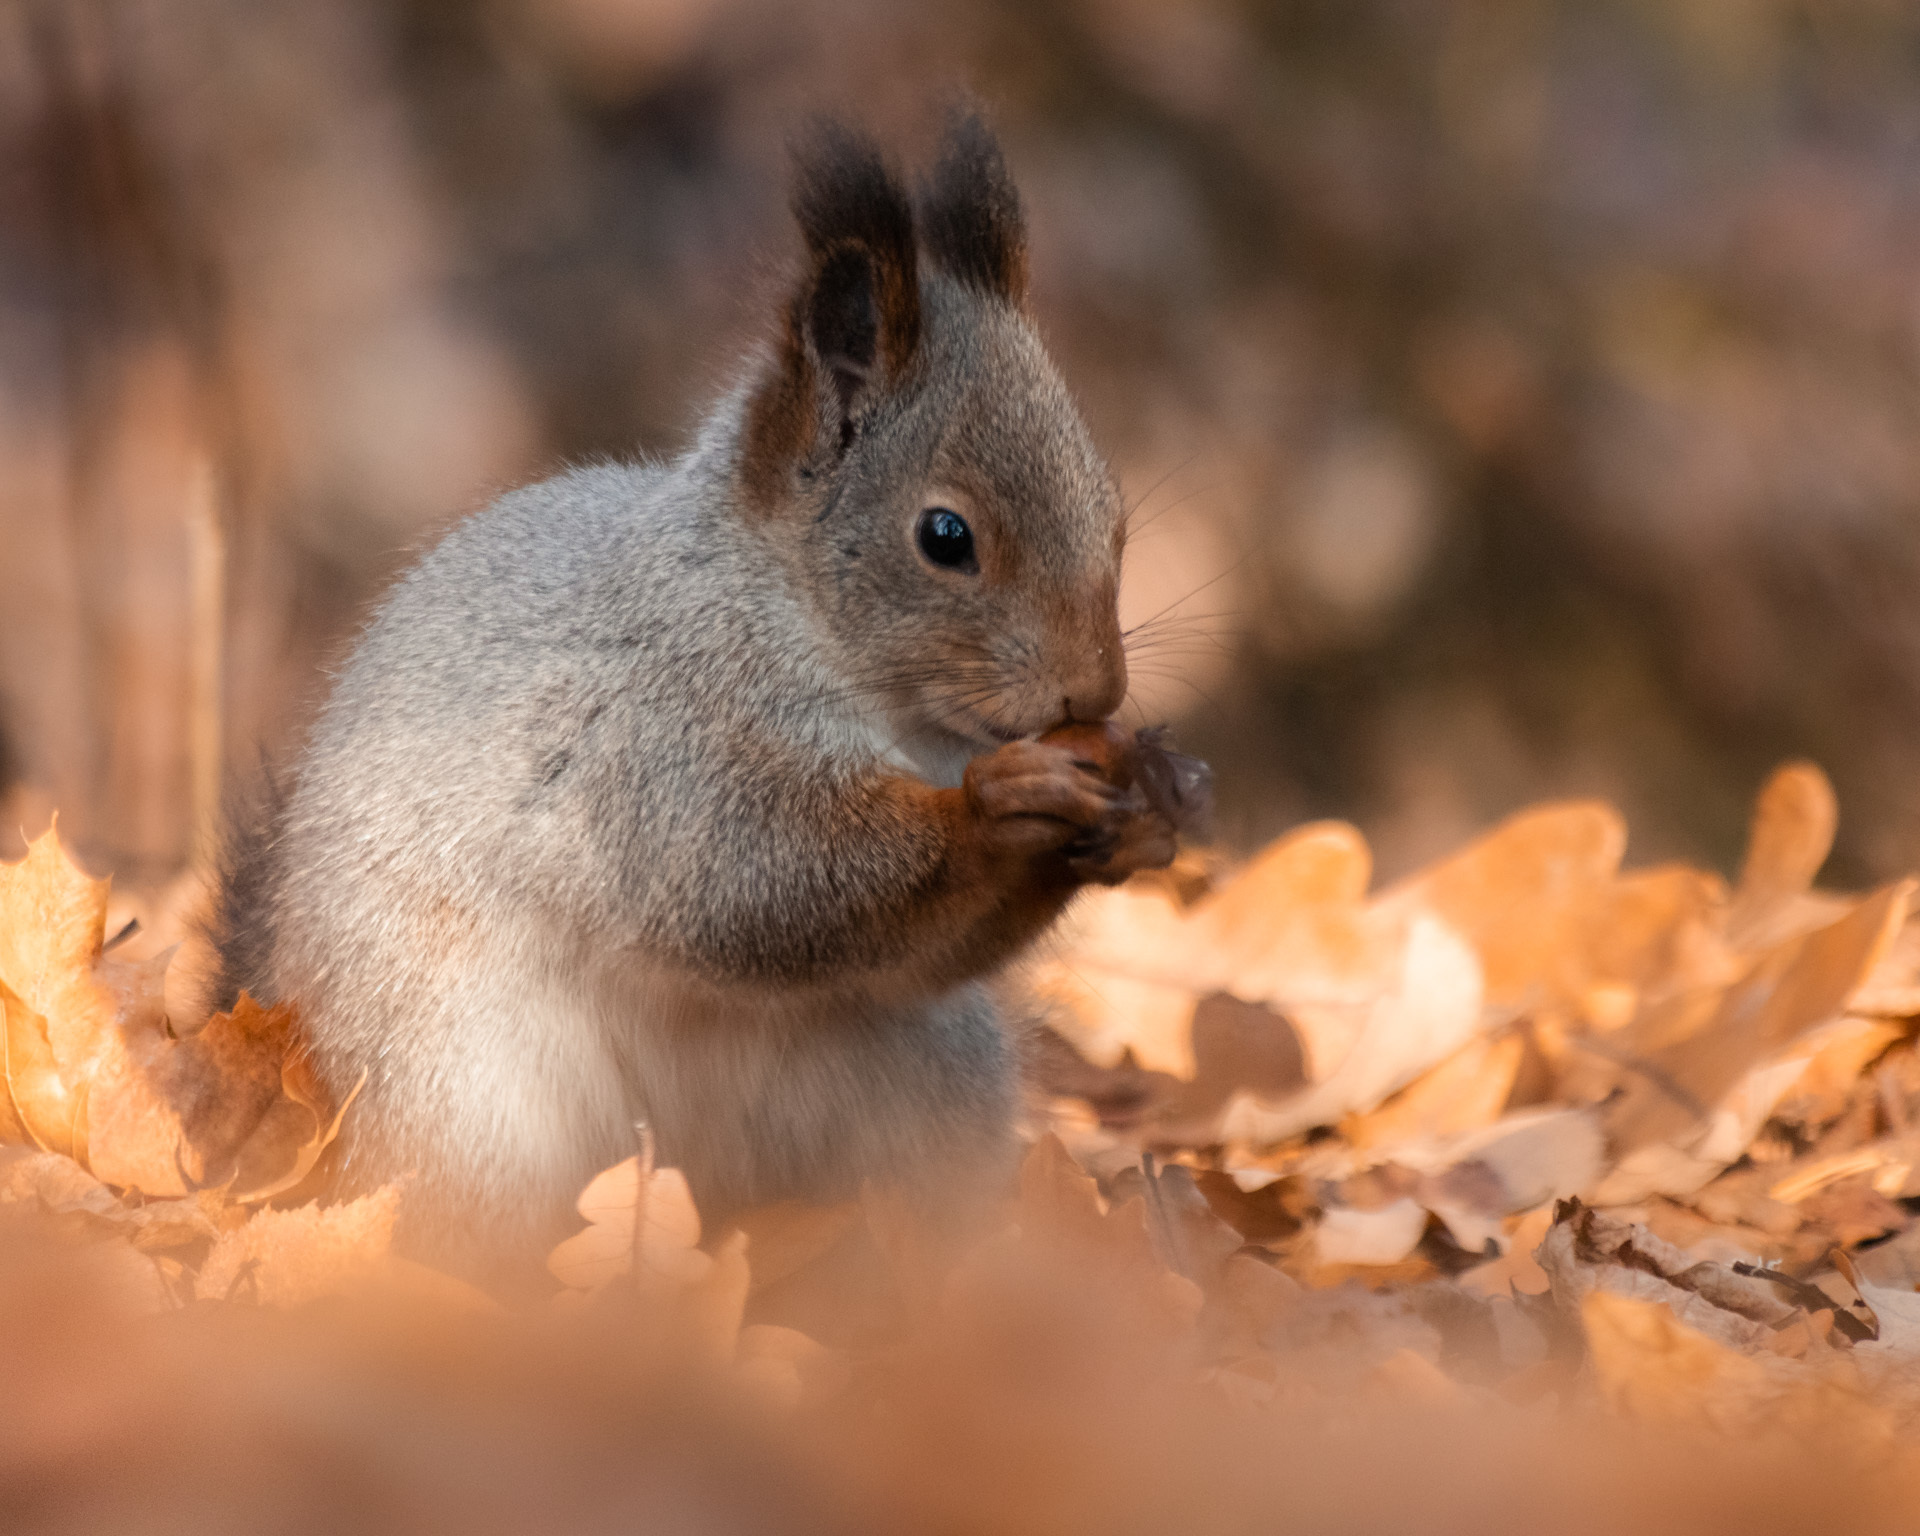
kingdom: Animalia
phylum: Chordata
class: Mammalia
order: Rodentia
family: Sciuridae
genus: Sciurus
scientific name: Sciurus vulgaris
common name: Eurasian red squirrel
